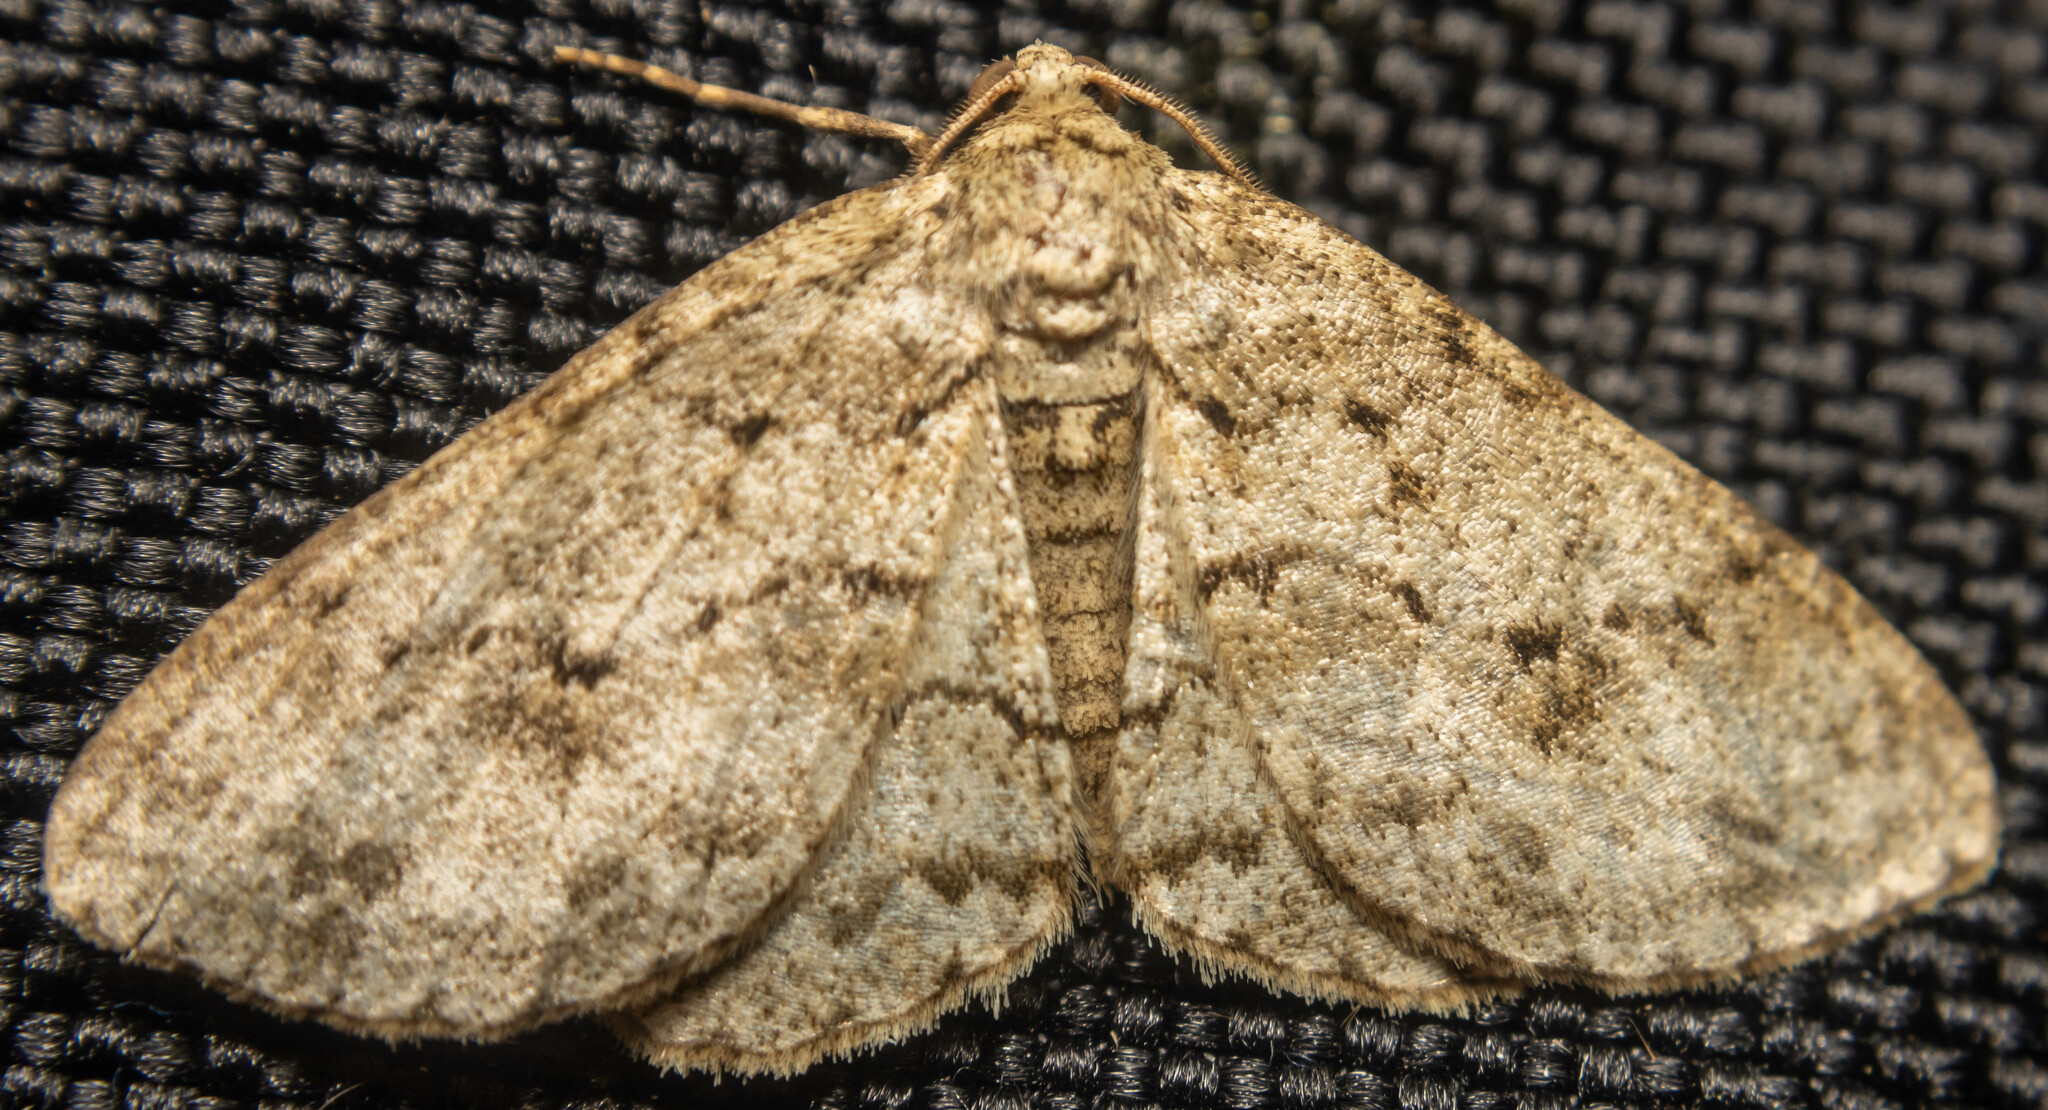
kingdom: Animalia
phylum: Arthropoda
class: Insecta
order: Lepidoptera
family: Geometridae
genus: Ectropis
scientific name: Ectropis crepuscularia
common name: Engrailed
